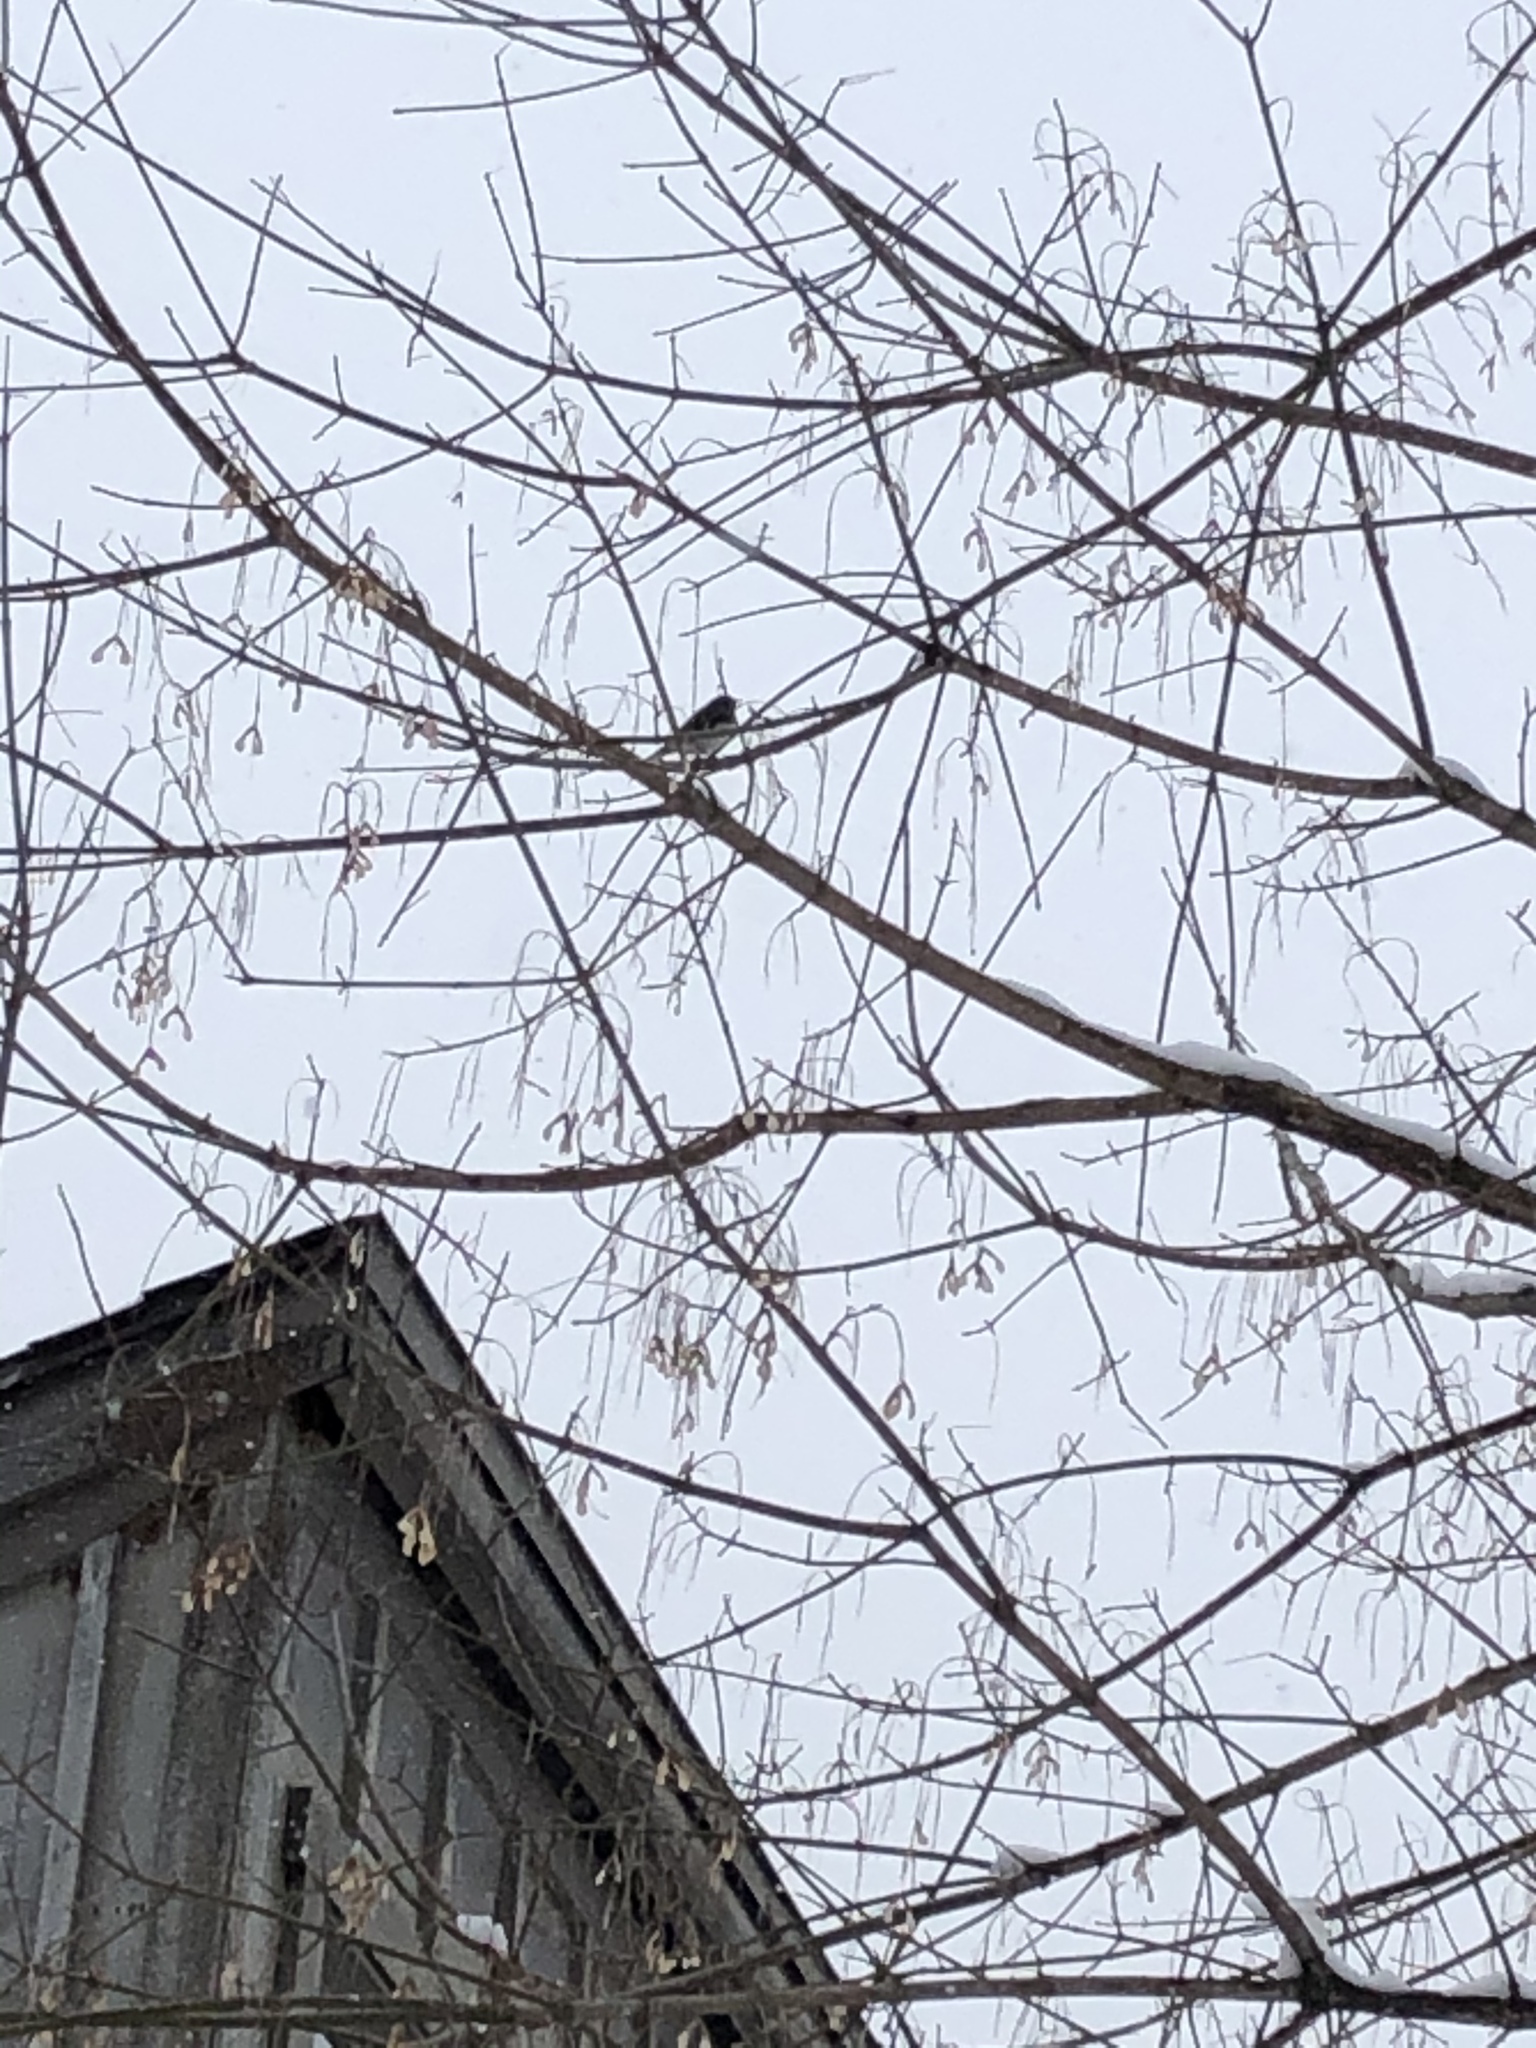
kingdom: Animalia
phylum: Chordata
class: Aves
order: Passeriformes
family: Passerellidae
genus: Junco
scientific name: Junco hyemalis
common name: Dark-eyed junco
